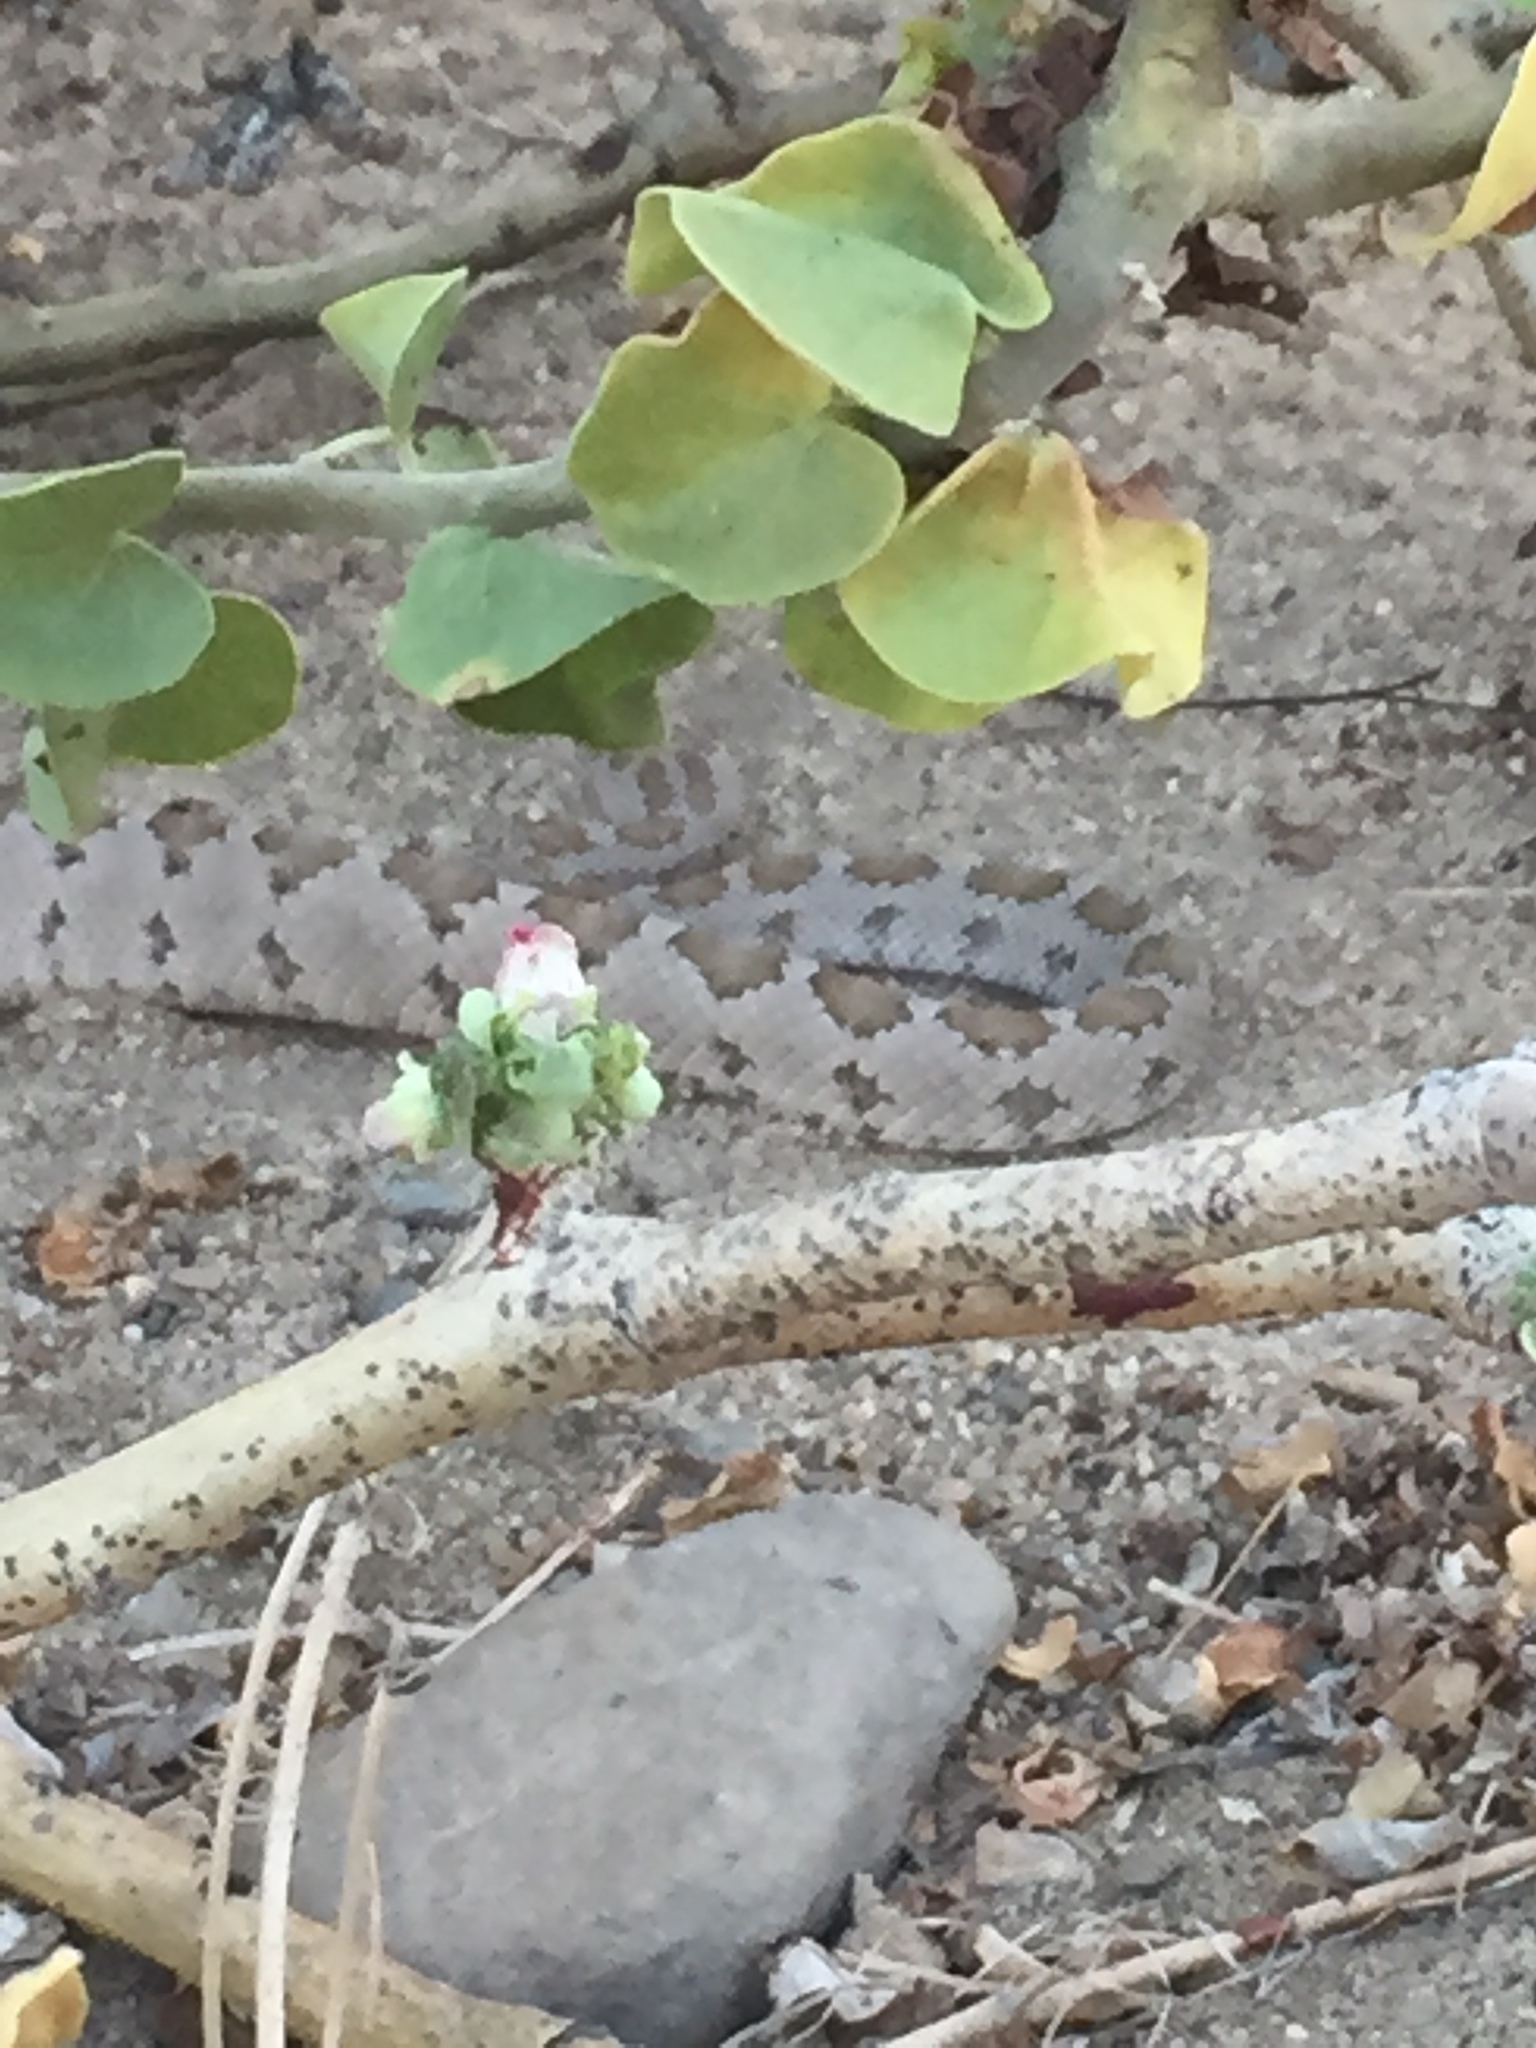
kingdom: Animalia
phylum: Chordata
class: Squamata
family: Viperidae
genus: Crotalus
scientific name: Crotalus enyo
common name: Lower california rattlesnake
